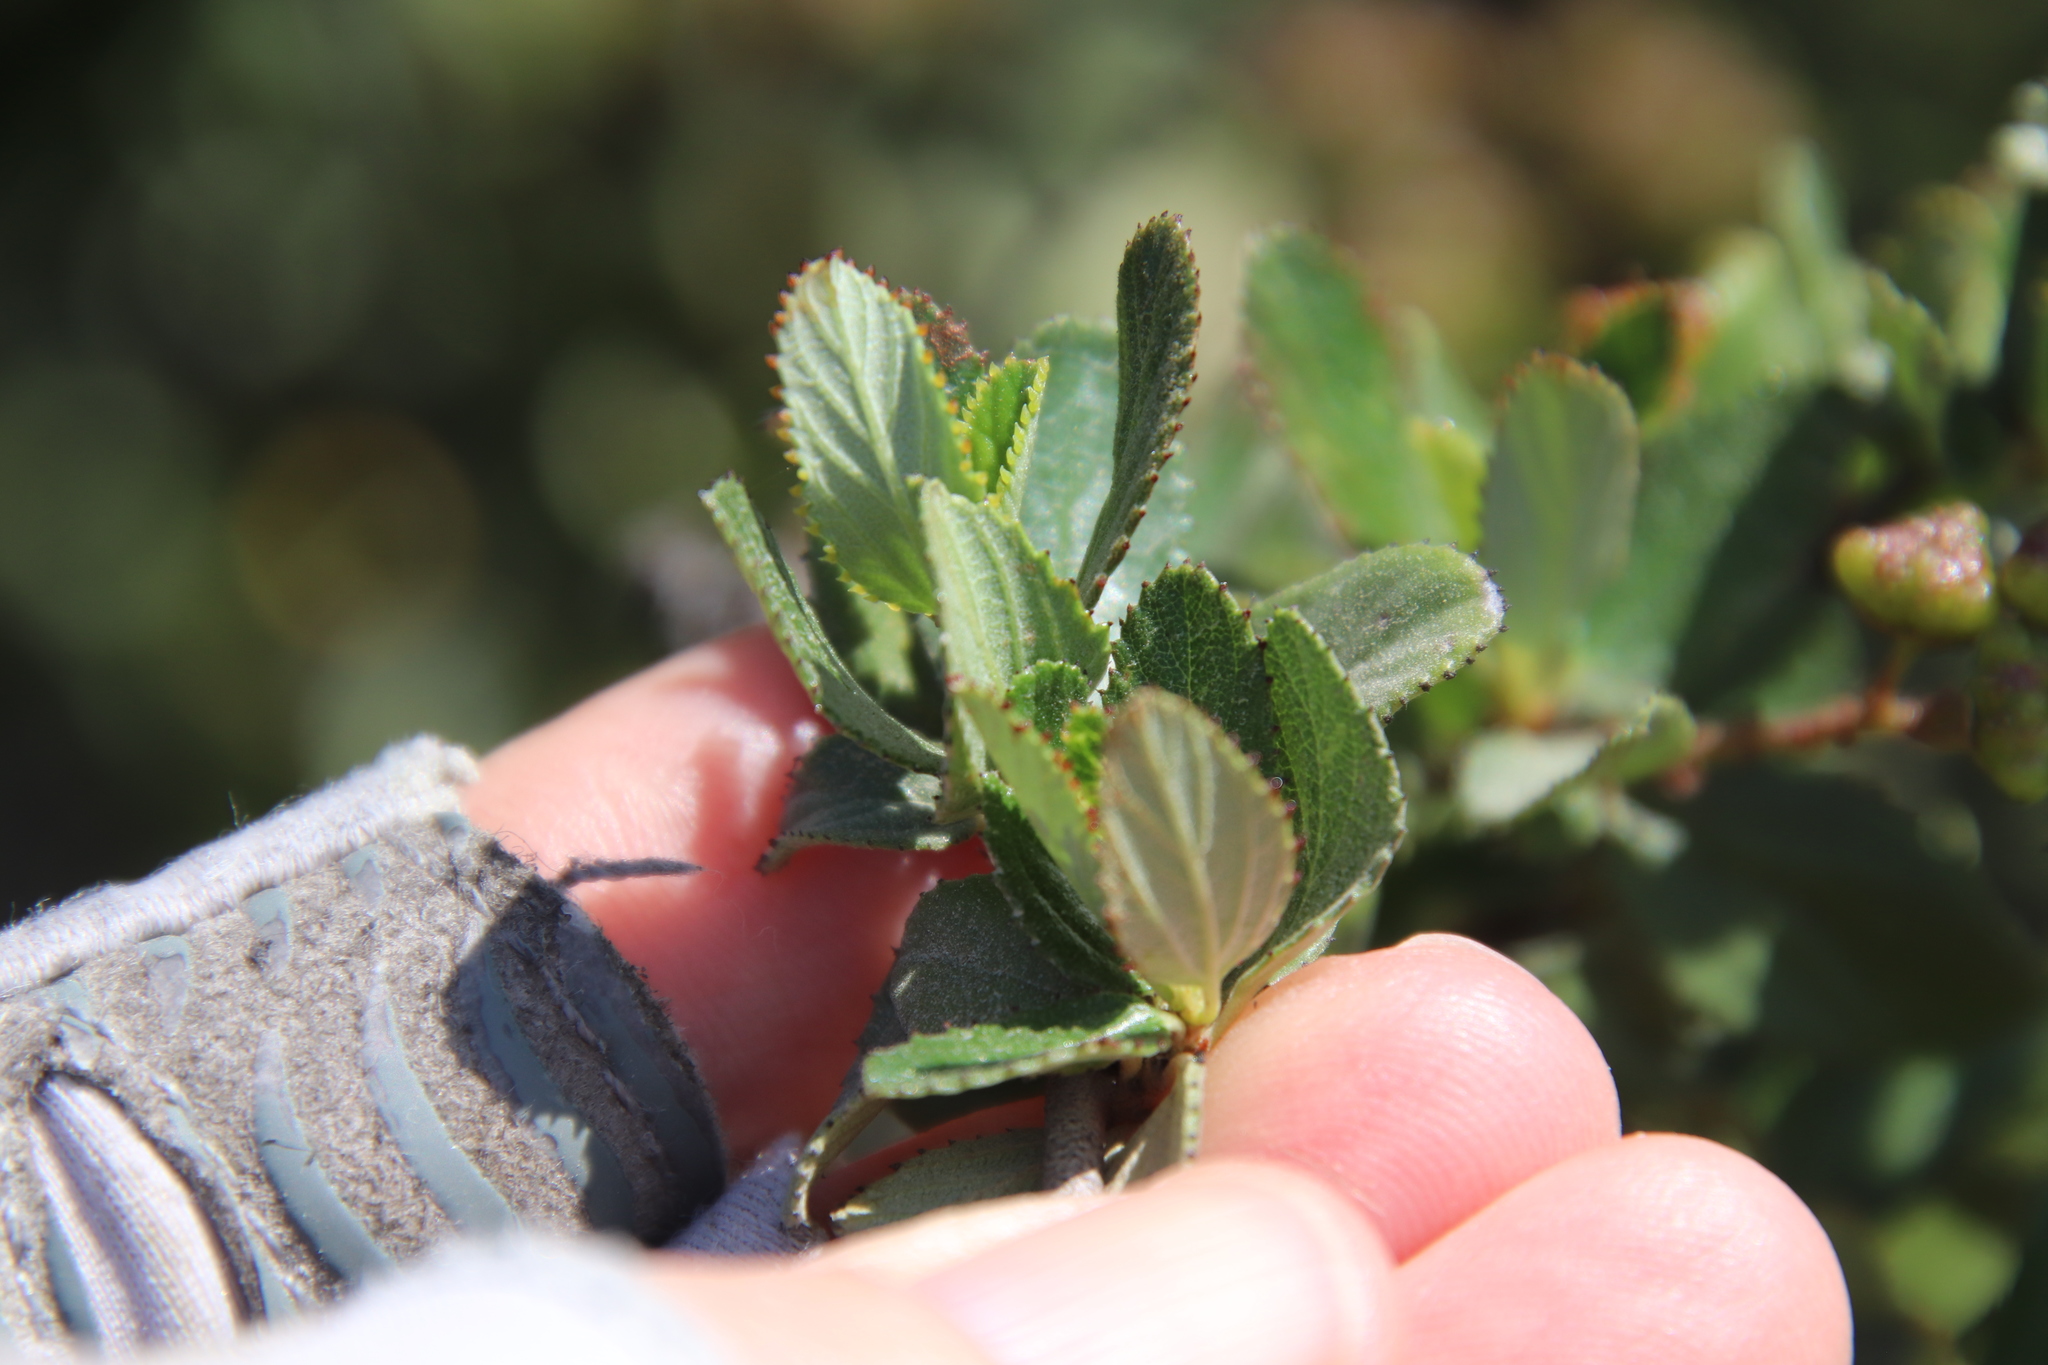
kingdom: Plantae
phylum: Tracheophyta
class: Magnoliopsida
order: Rosales
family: Rhamnaceae
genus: Ceanothus
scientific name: Ceanothus tomentosus
